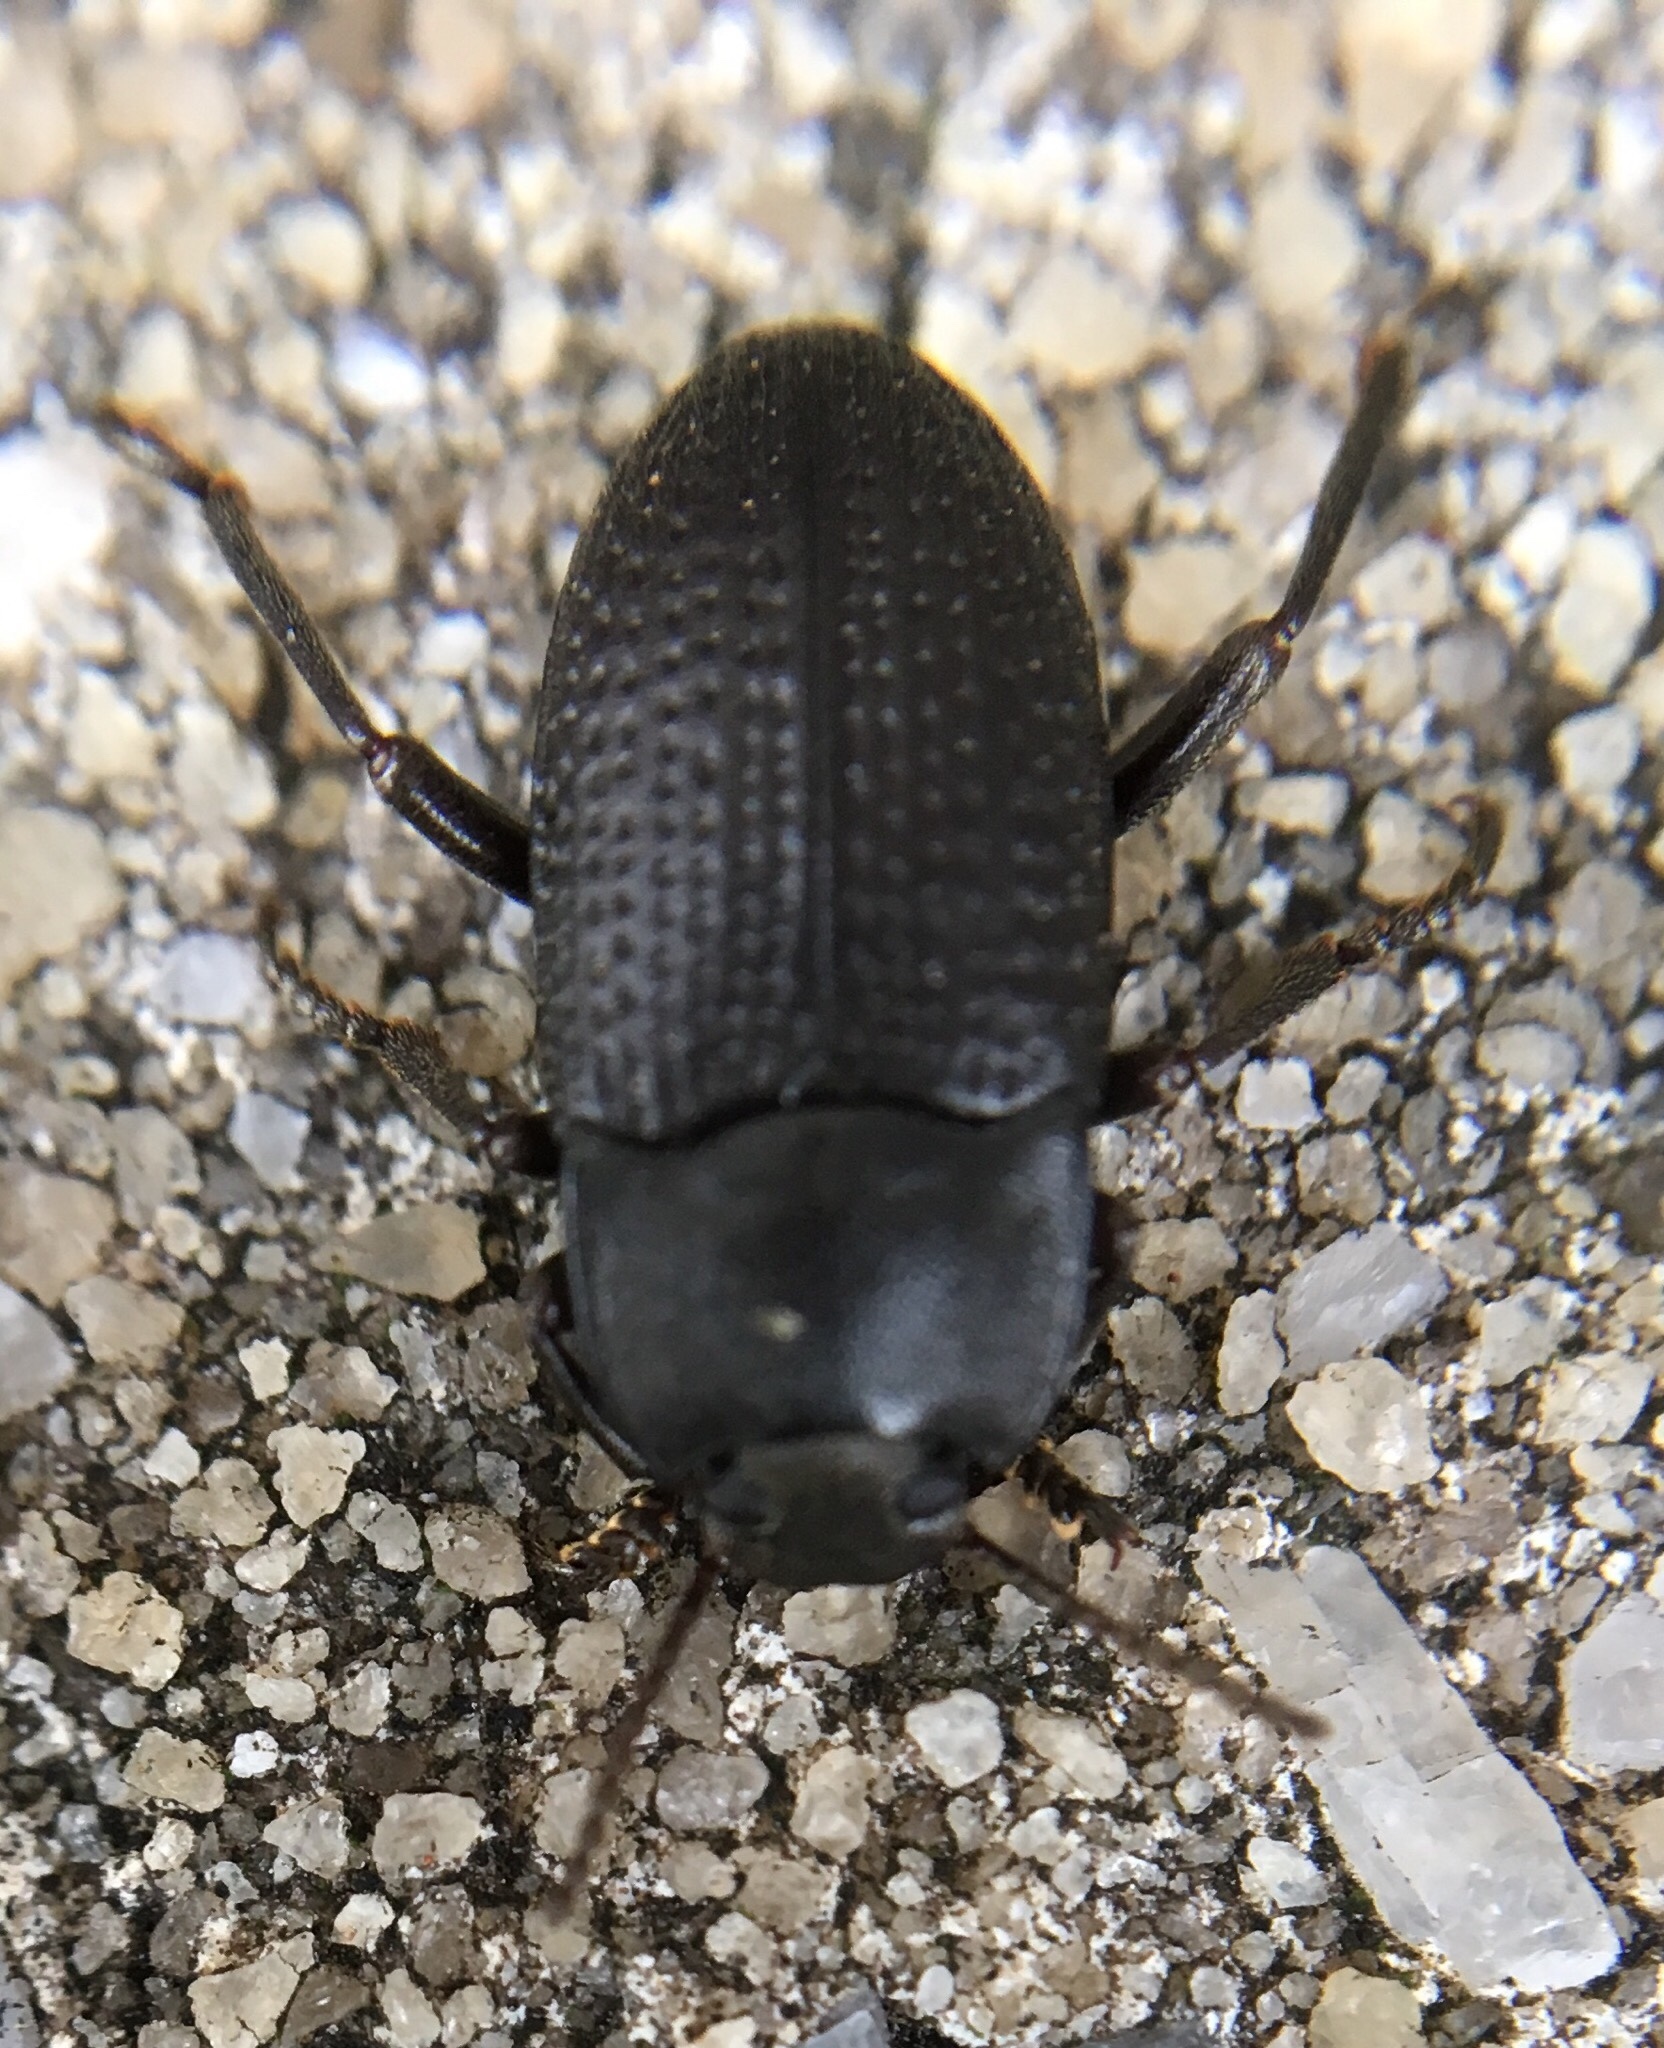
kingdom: Animalia
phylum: Arthropoda
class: Insecta
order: Coleoptera
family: Tenebrionidae
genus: Asiopus
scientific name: Asiopus
